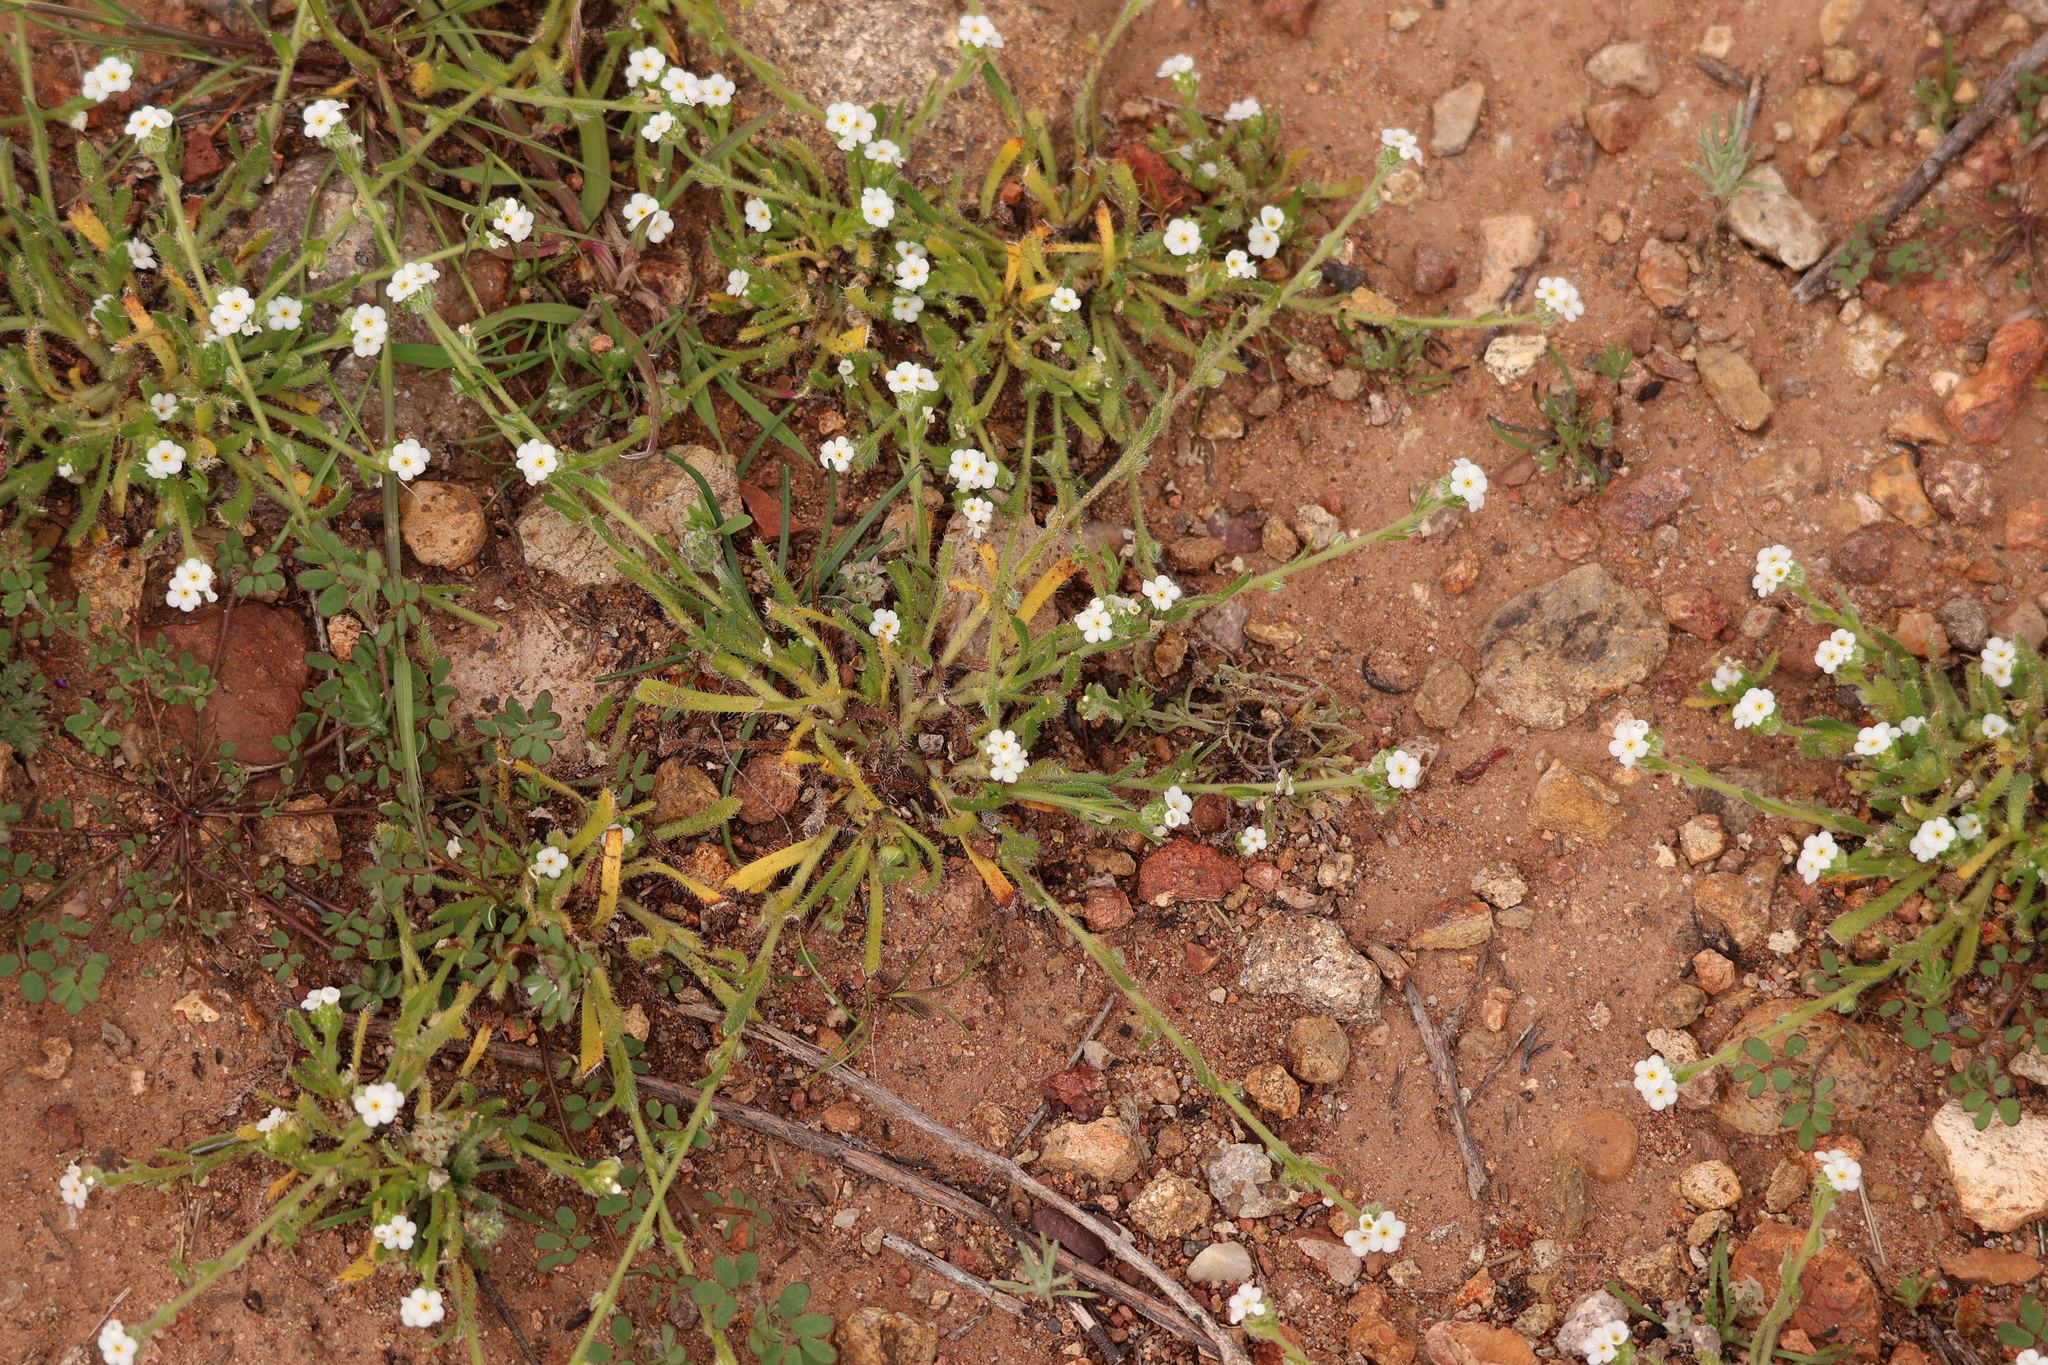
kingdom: Plantae
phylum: Tracheophyta
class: Magnoliopsida
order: Boraginales
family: Boraginaceae
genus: Pectocarya
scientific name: Pectocarya linearis
